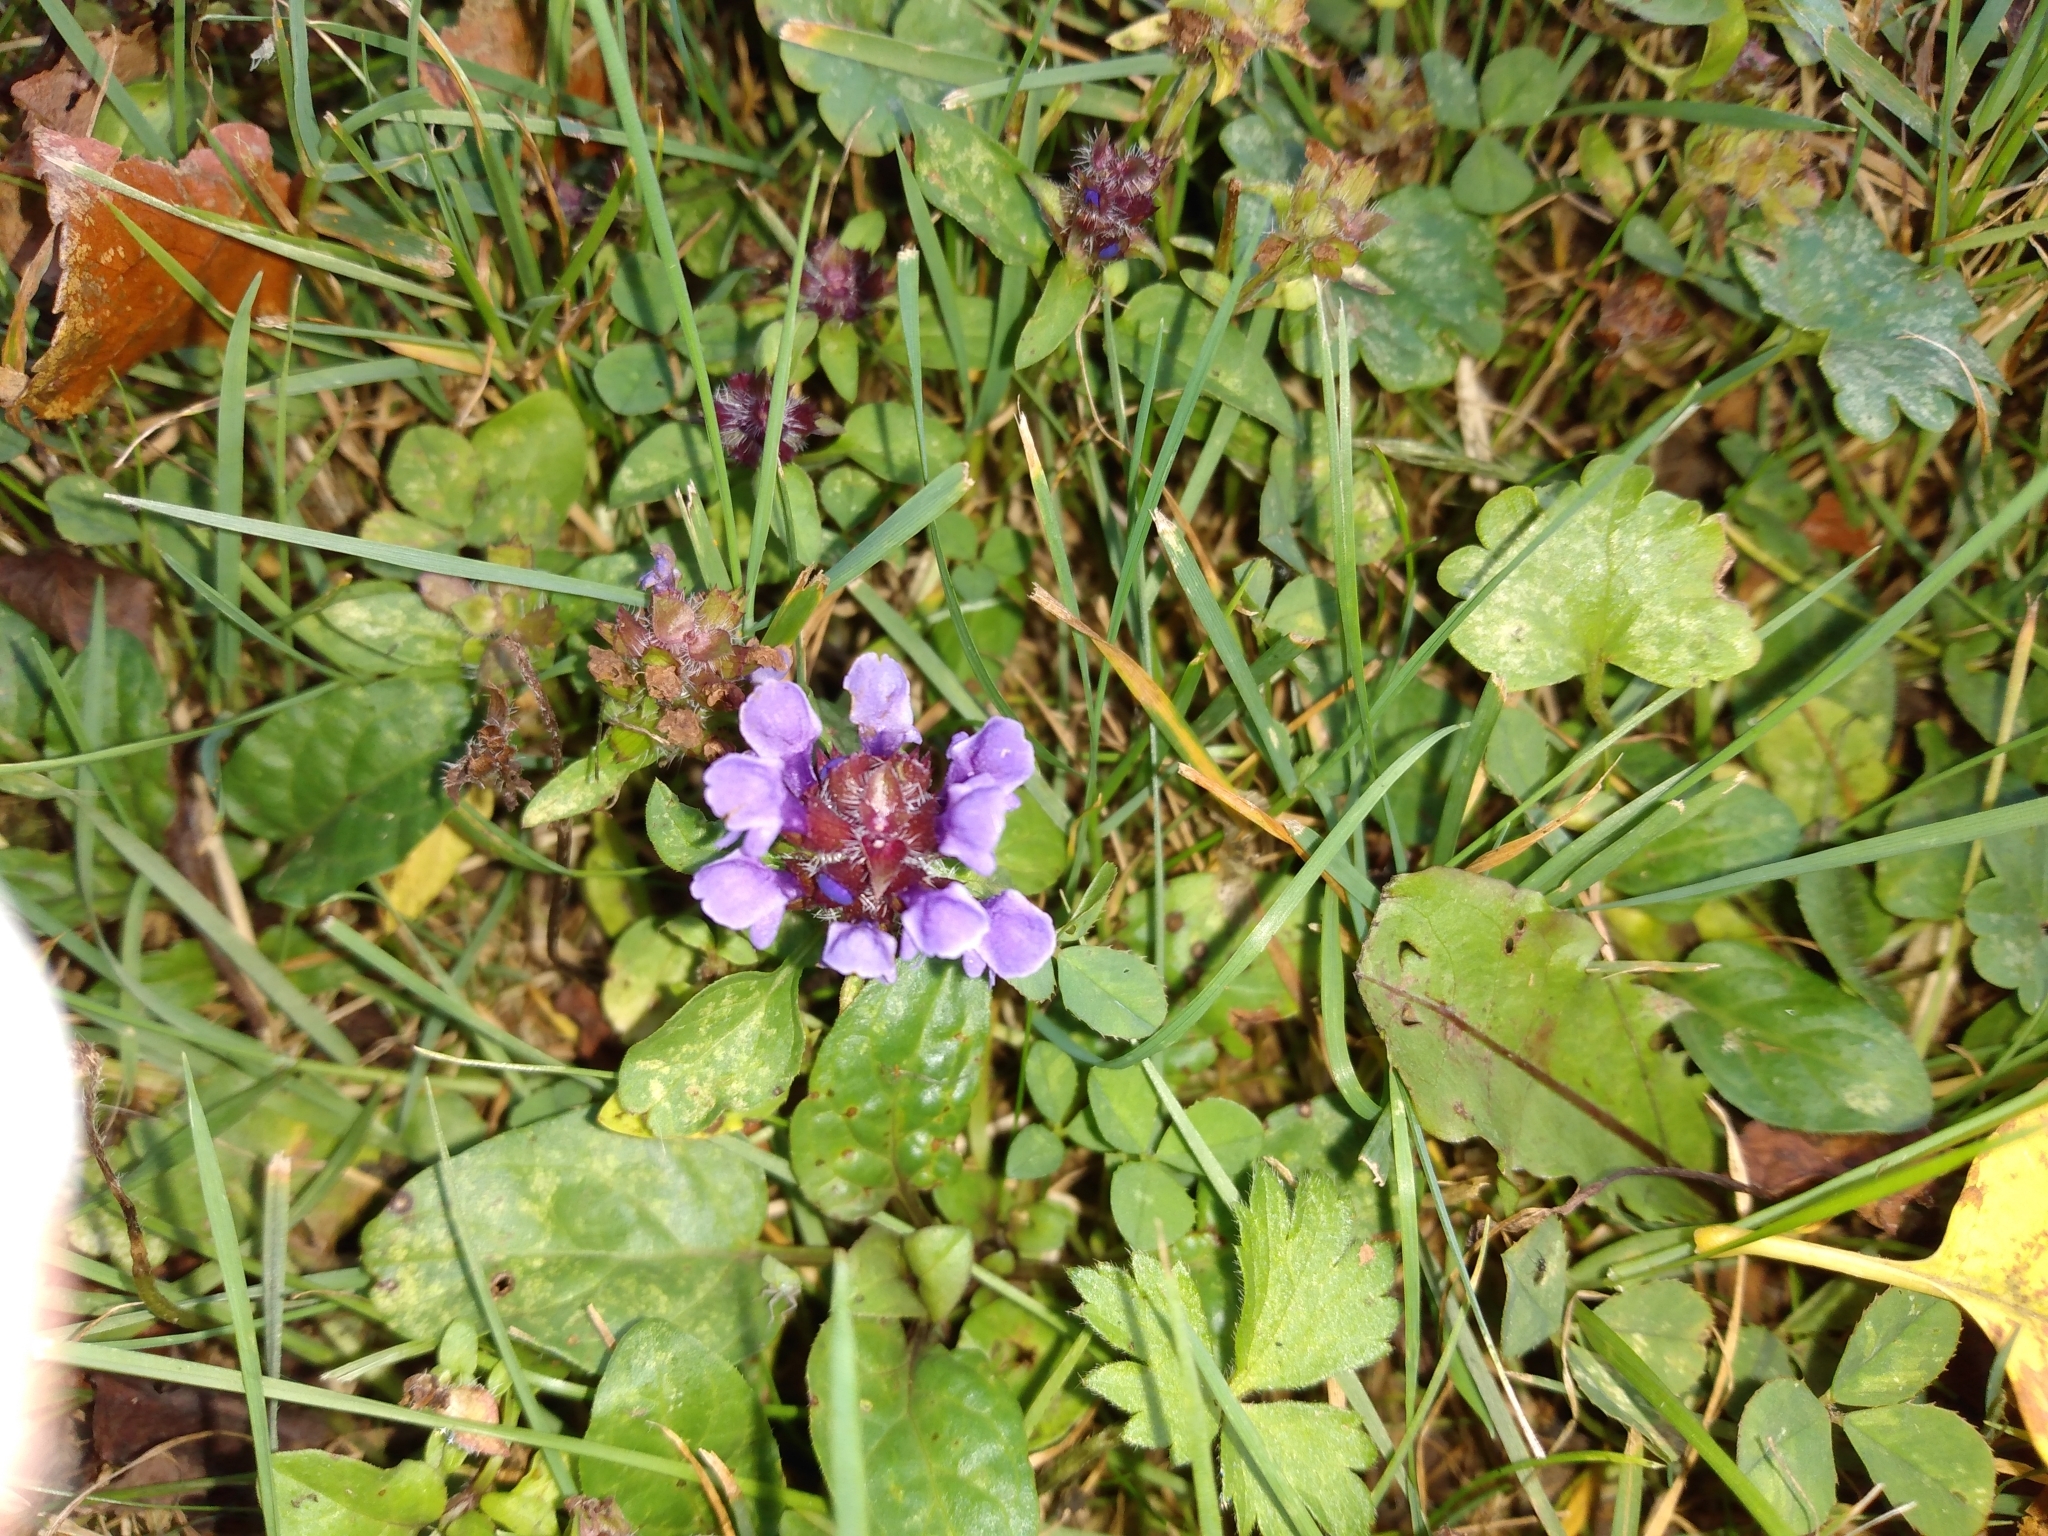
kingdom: Plantae
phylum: Tracheophyta
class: Magnoliopsida
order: Lamiales
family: Lamiaceae
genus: Prunella
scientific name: Prunella vulgaris
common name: Heal-all
